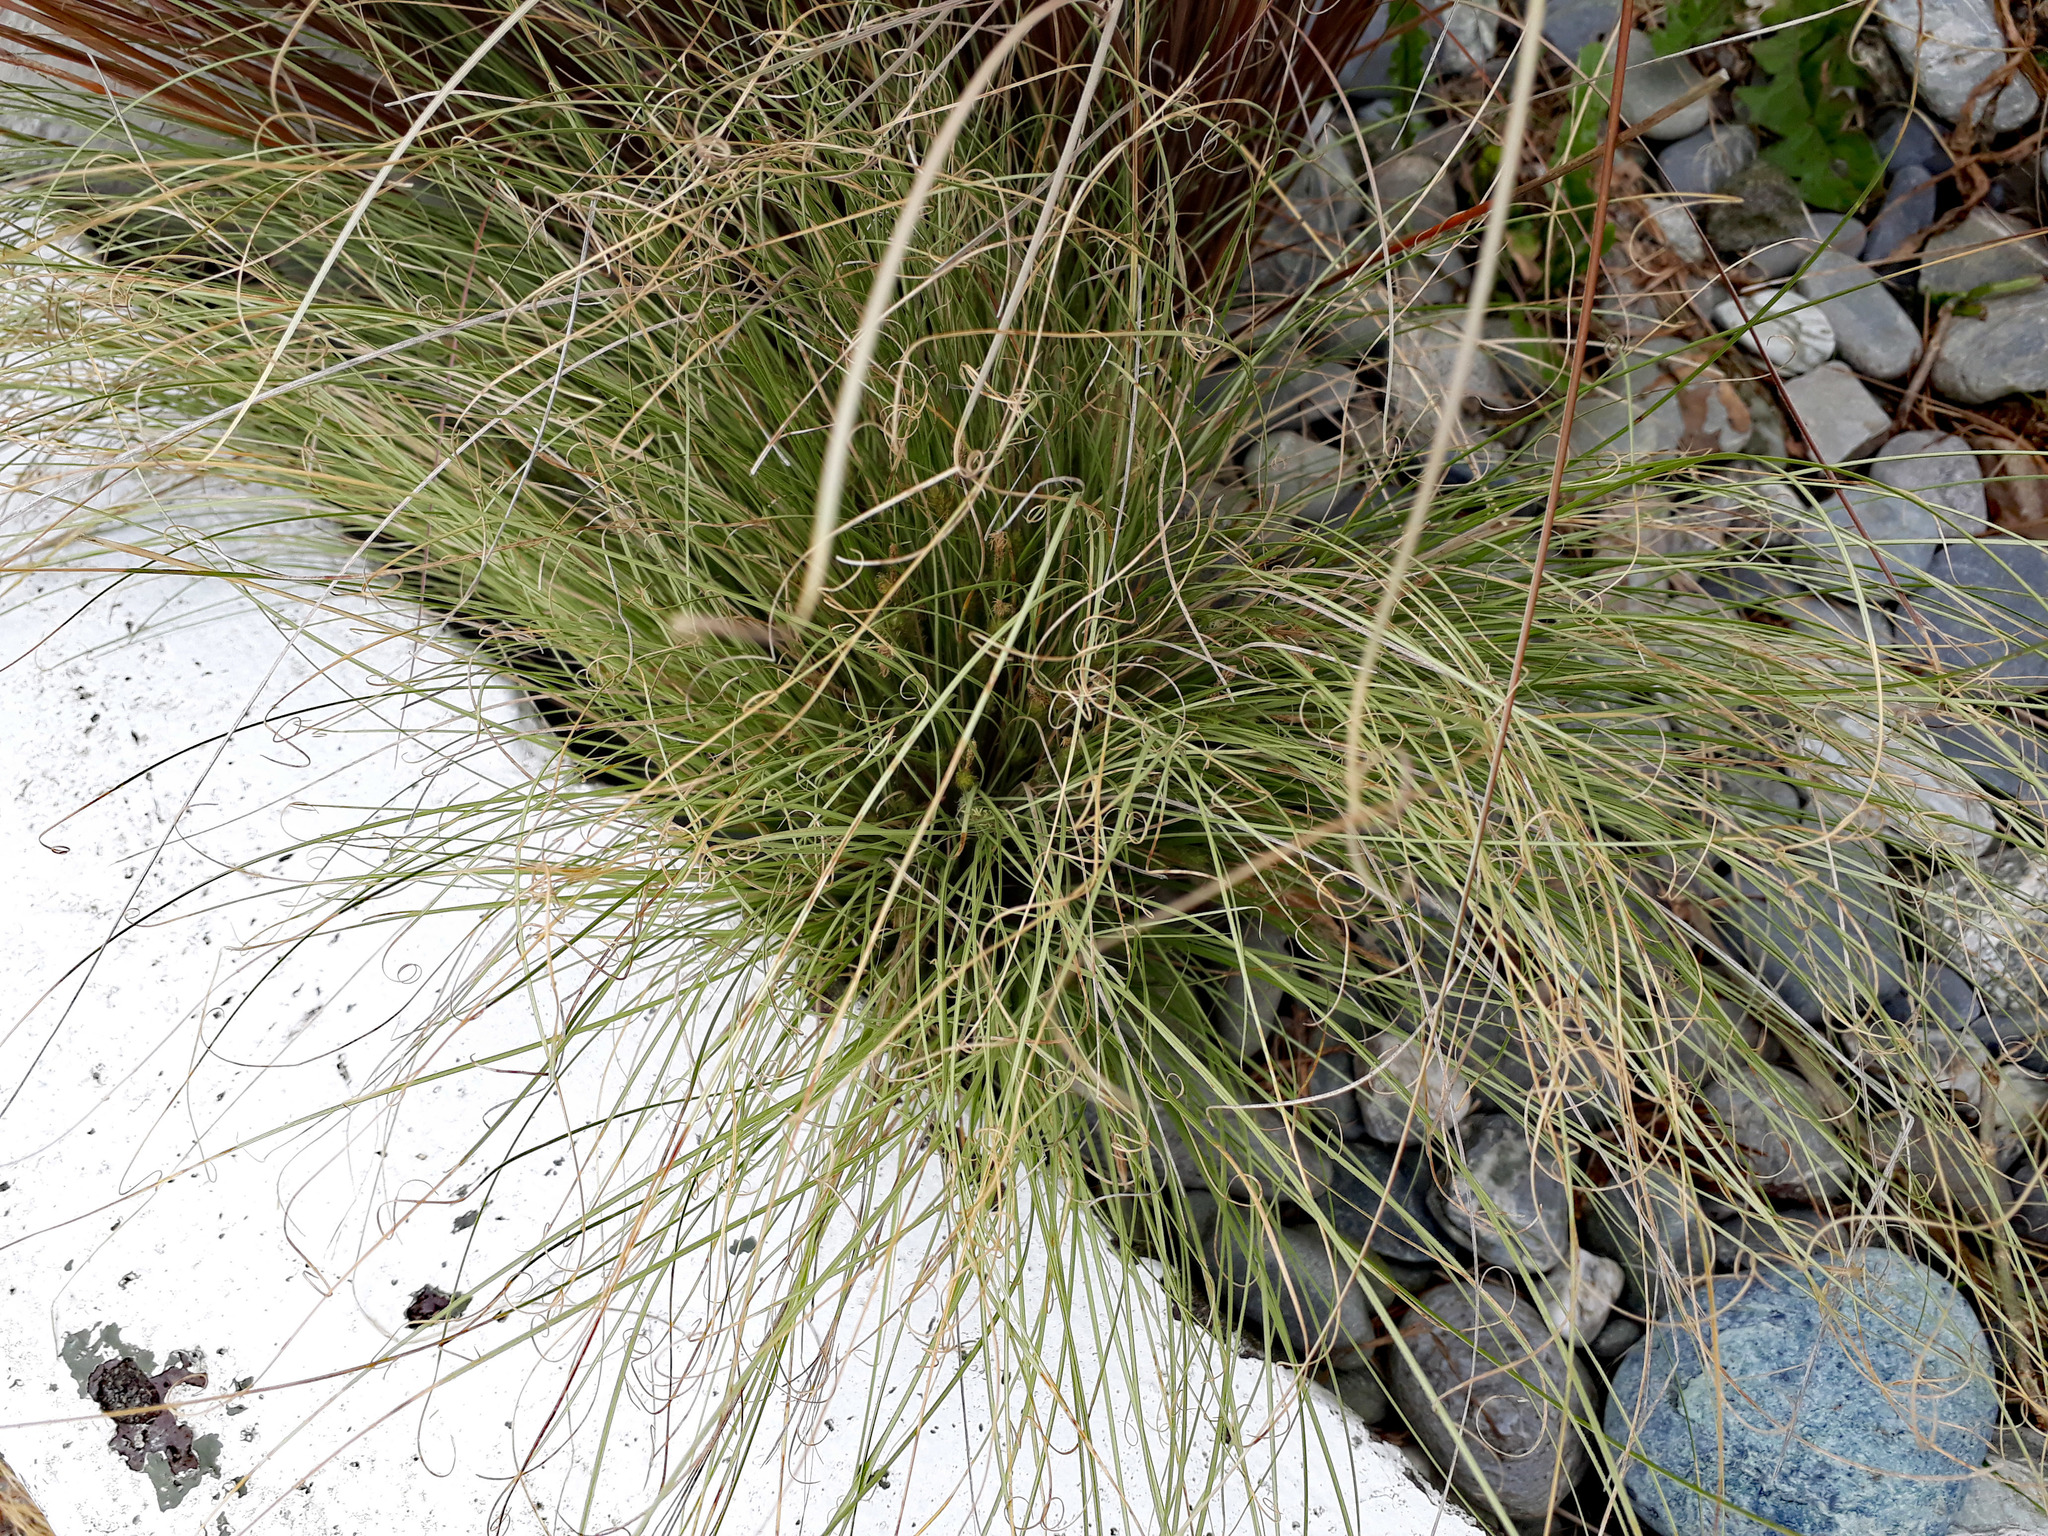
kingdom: Plantae
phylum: Tracheophyta
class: Liliopsida
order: Poales
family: Cyperaceae
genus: Carex
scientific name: Carex fretalis
